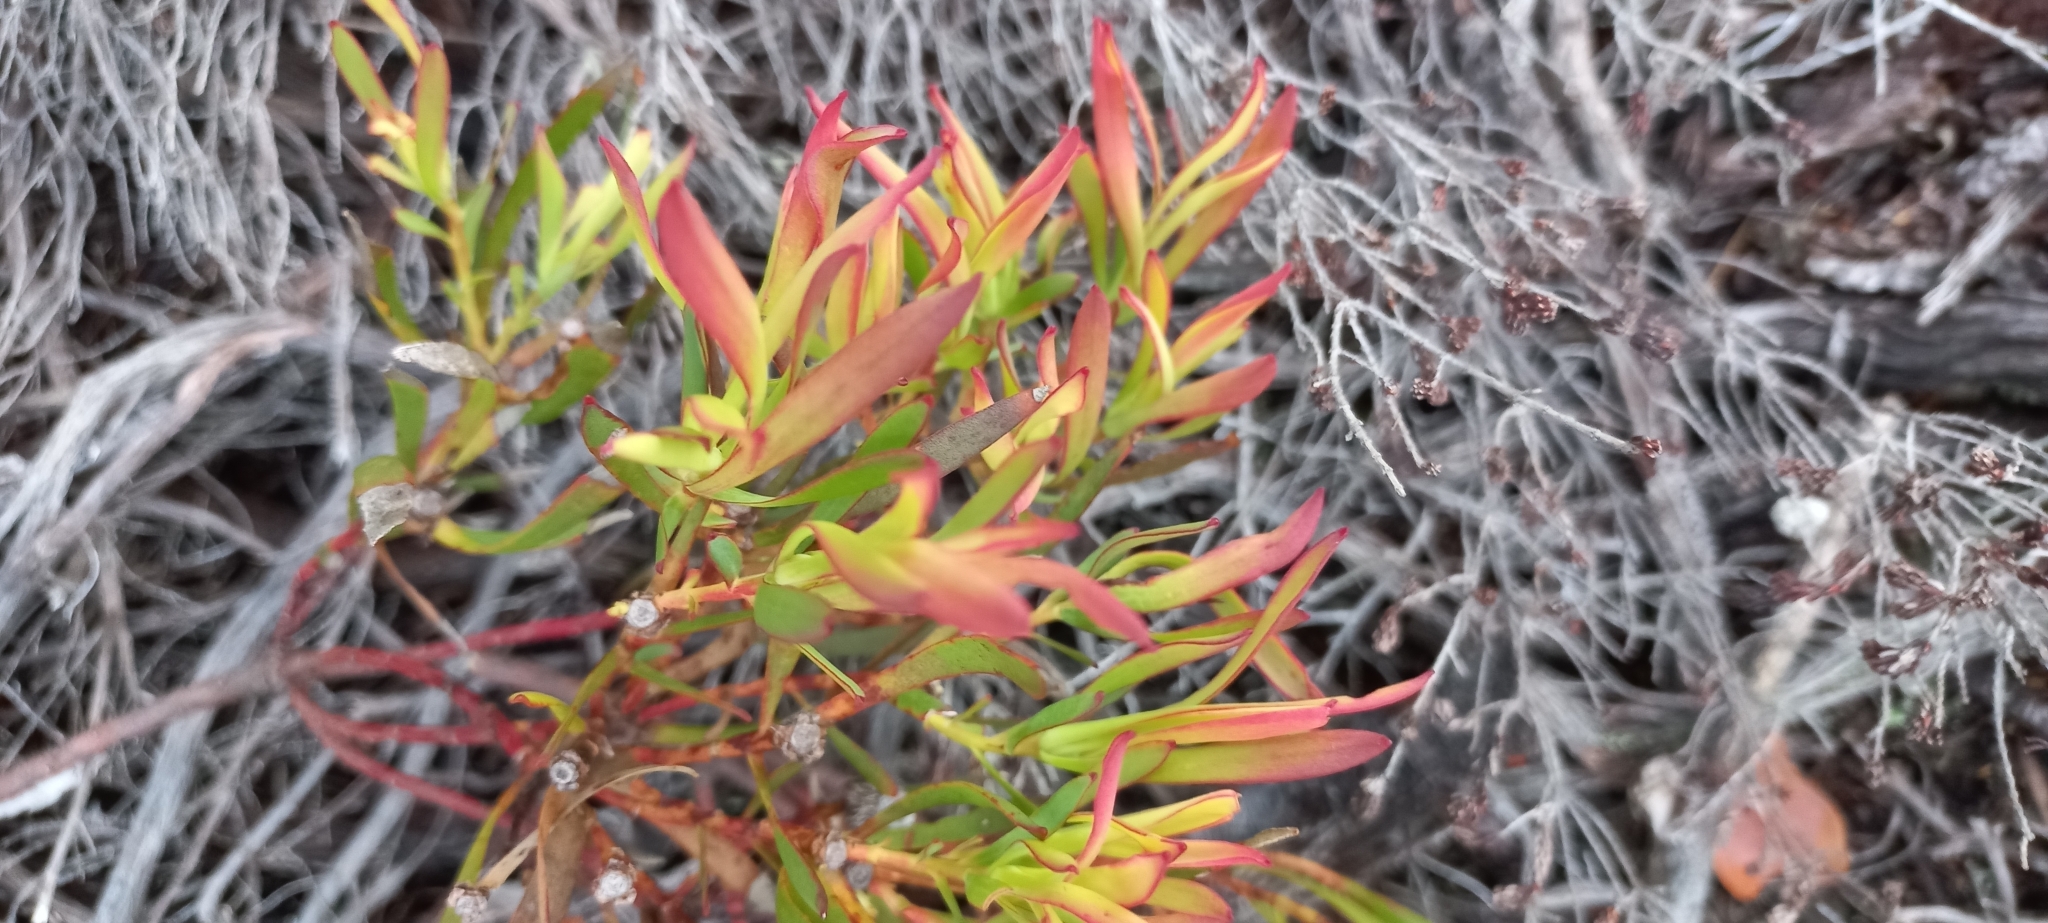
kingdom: Plantae
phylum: Tracheophyta
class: Magnoliopsida
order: Proteales
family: Proteaceae
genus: Leucadendron
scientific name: Leucadendron salignum
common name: Common sunshine conebush
